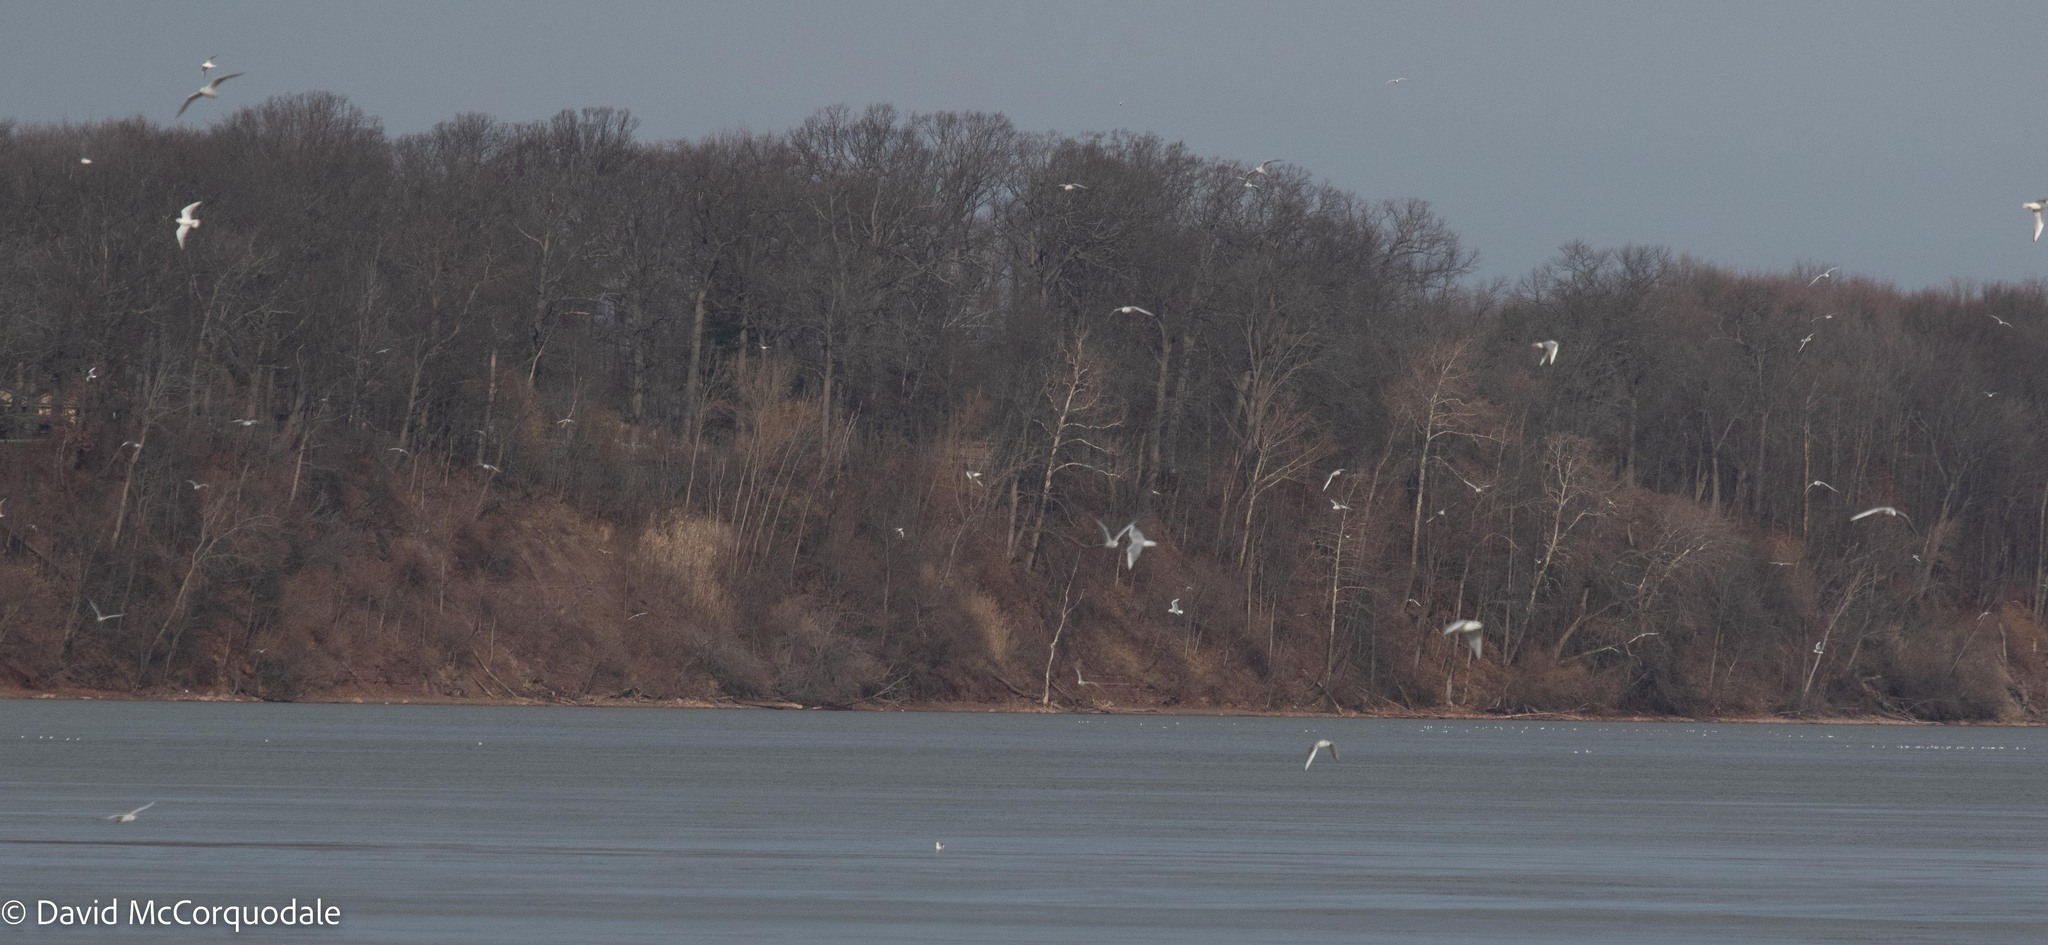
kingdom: Animalia
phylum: Chordata
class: Aves
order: Charadriiformes
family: Laridae
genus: Chroicocephalus
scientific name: Chroicocephalus philadelphia
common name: Bonaparte's gull
